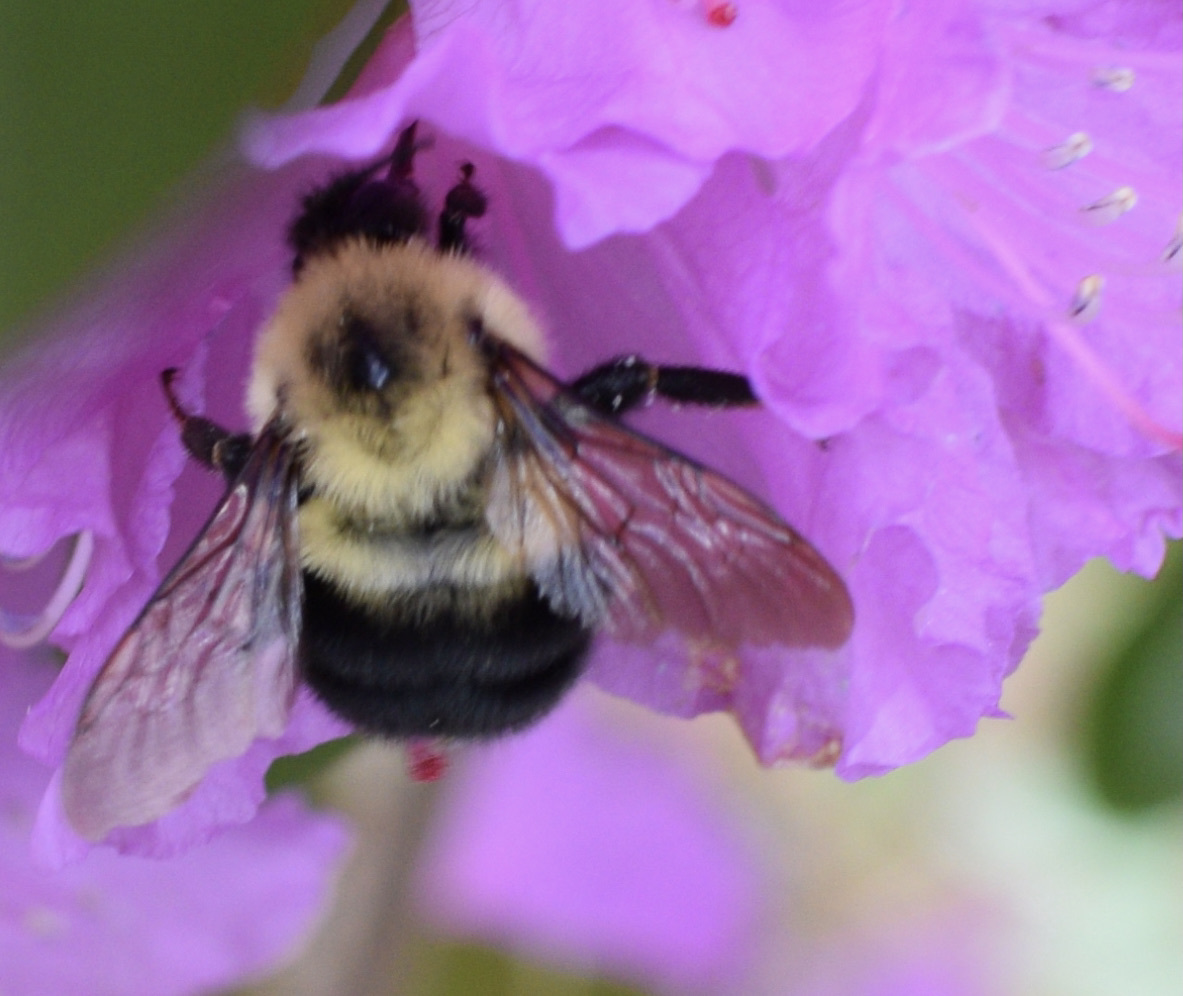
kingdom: Animalia
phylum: Arthropoda
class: Insecta
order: Hymenoptera
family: Apidae
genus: Bombus
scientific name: Bombus bimaculatus
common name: Two-spotted bumble bee
